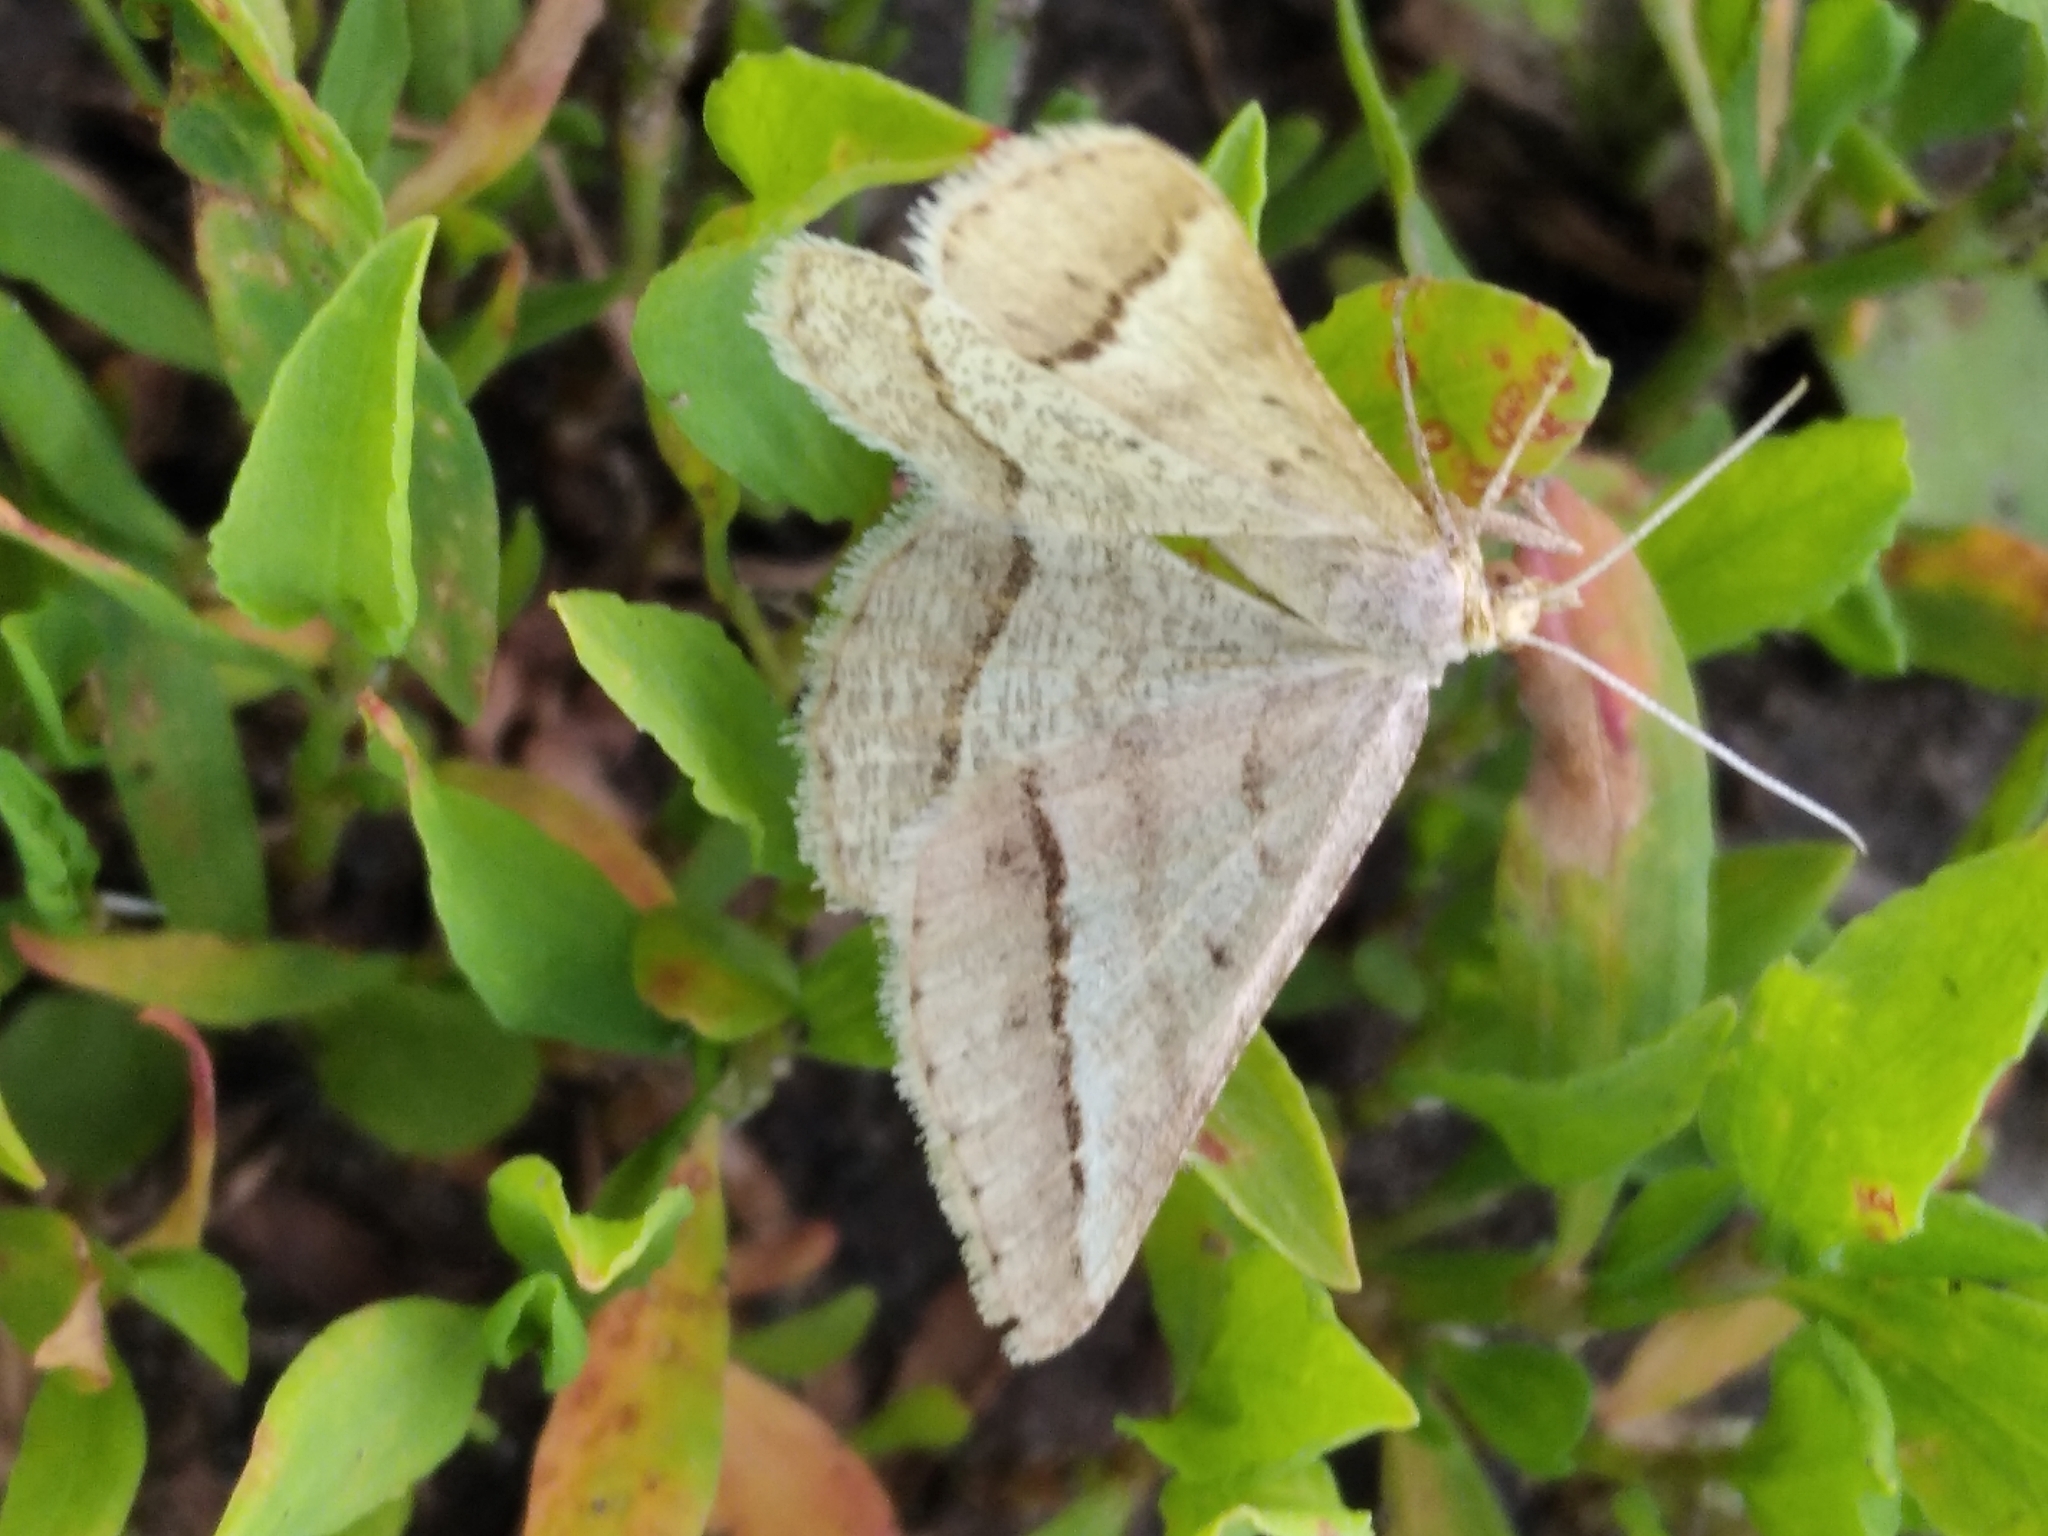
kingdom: Animalia
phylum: Arthropoda
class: Insecta
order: Lepidoptera
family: Geometridae
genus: Tephrina
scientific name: Tephrina arenacearia
